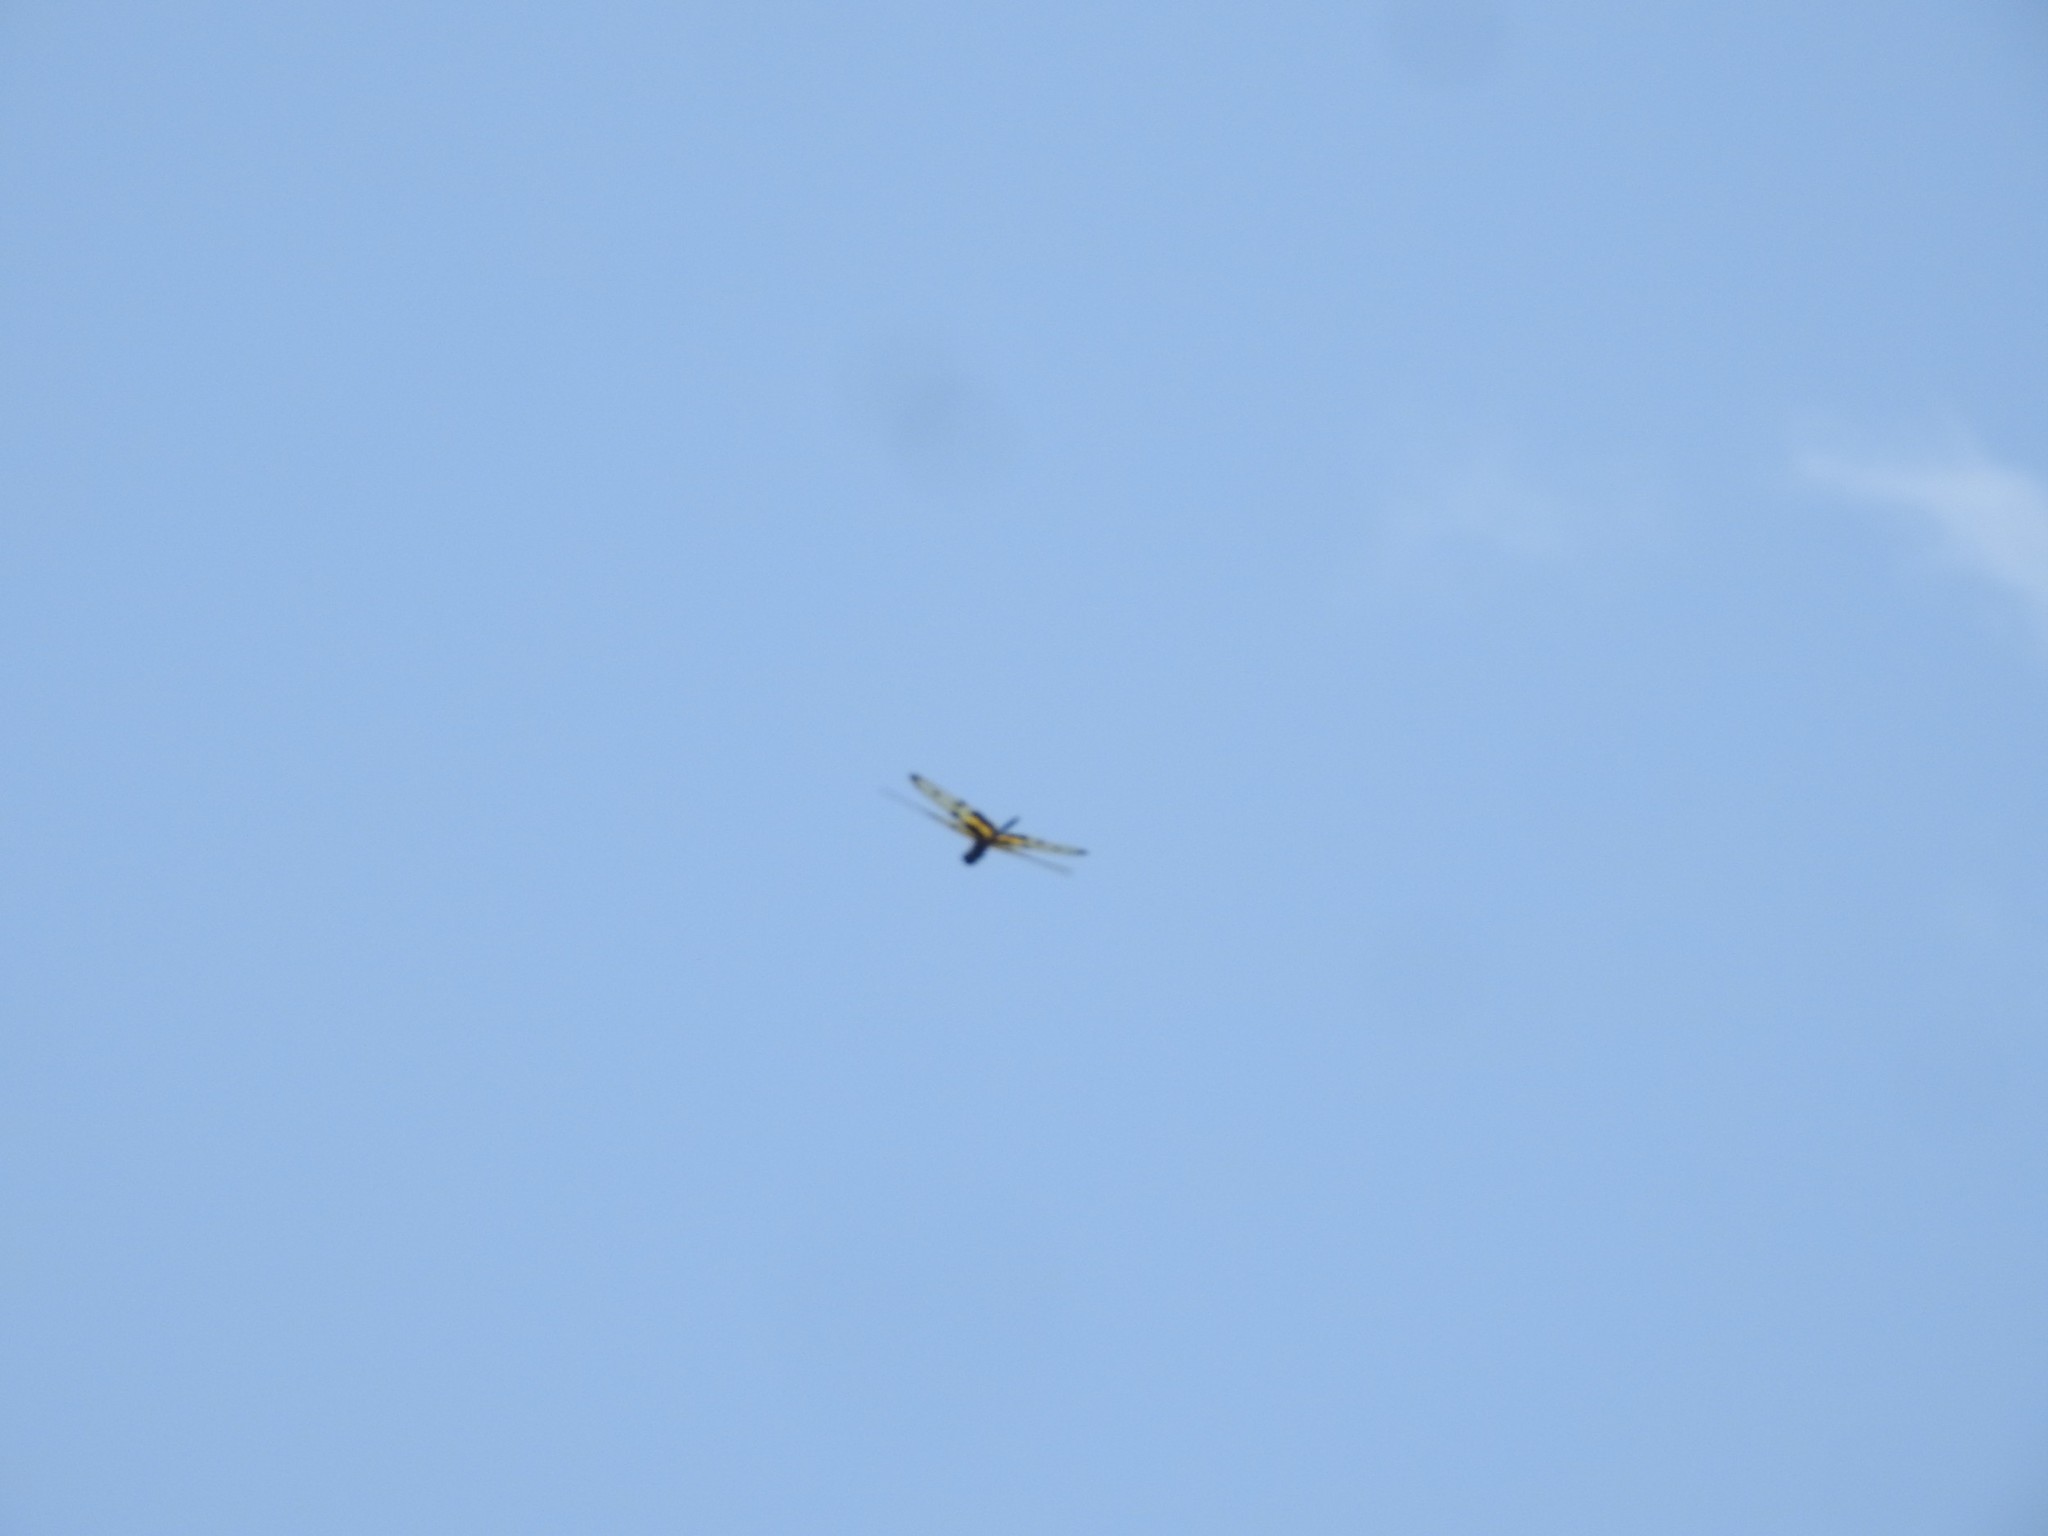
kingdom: Animalia
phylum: Arthropoda
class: Insecta
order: Odonata
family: Libellulidae
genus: Rhyothemis
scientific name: Rhyothemis variegata
